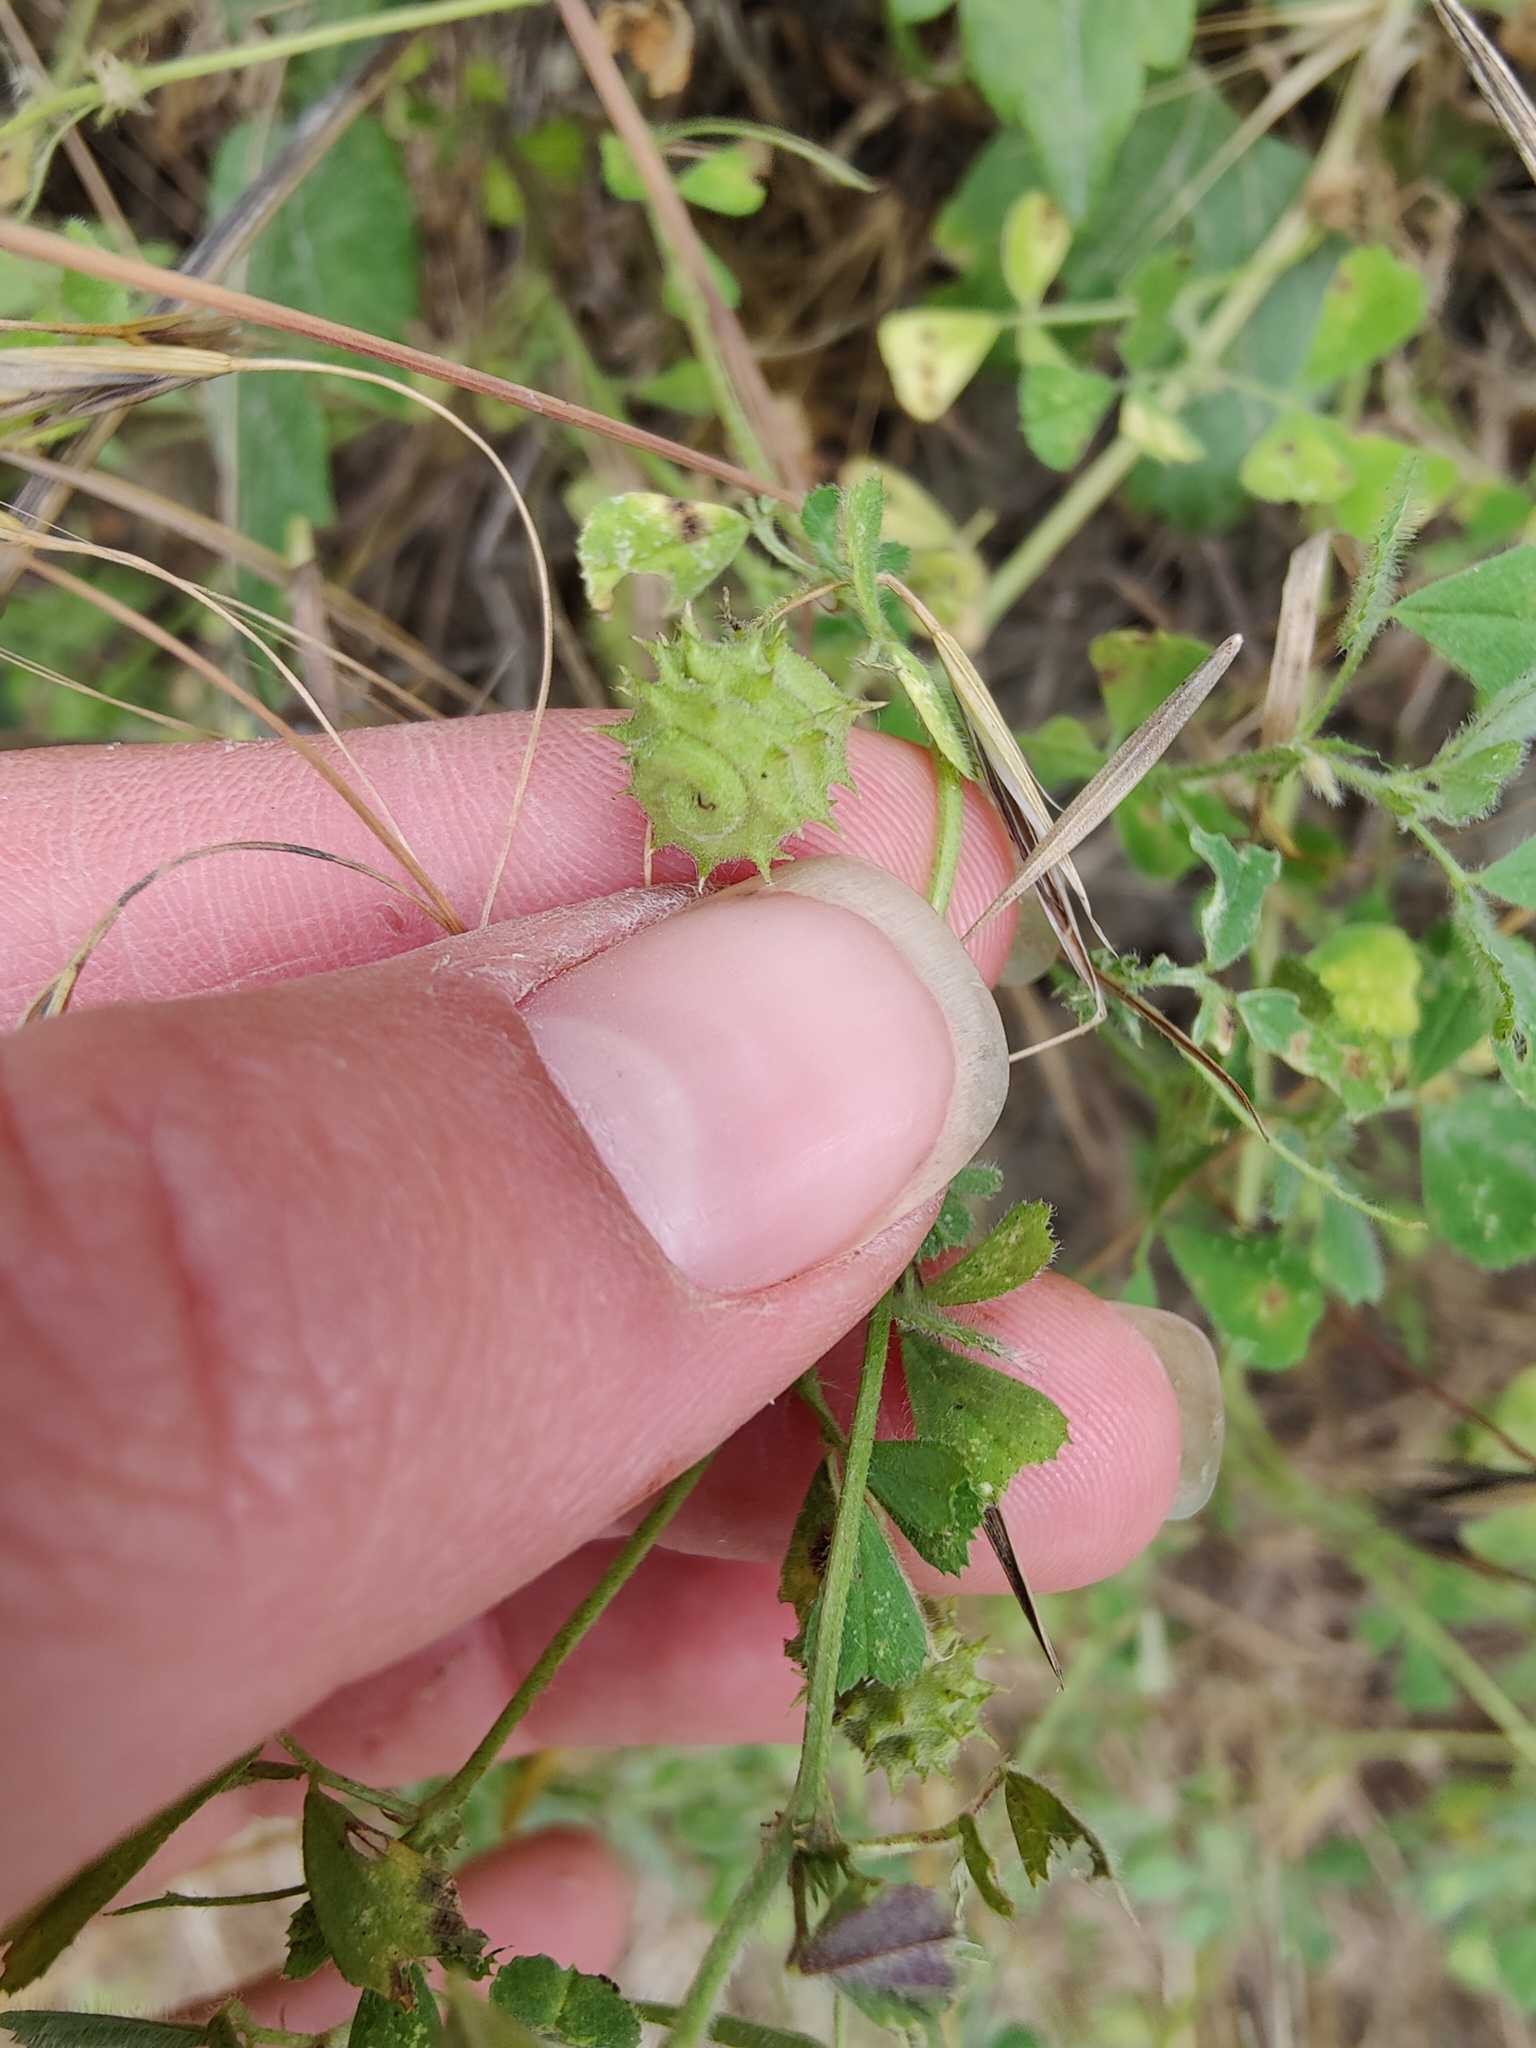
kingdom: Plantae
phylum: Tracheophyta
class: Magnoliopsida
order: Fabales
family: Fabaceae
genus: Medicago
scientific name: Medicago rigidula
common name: Tifton medic
